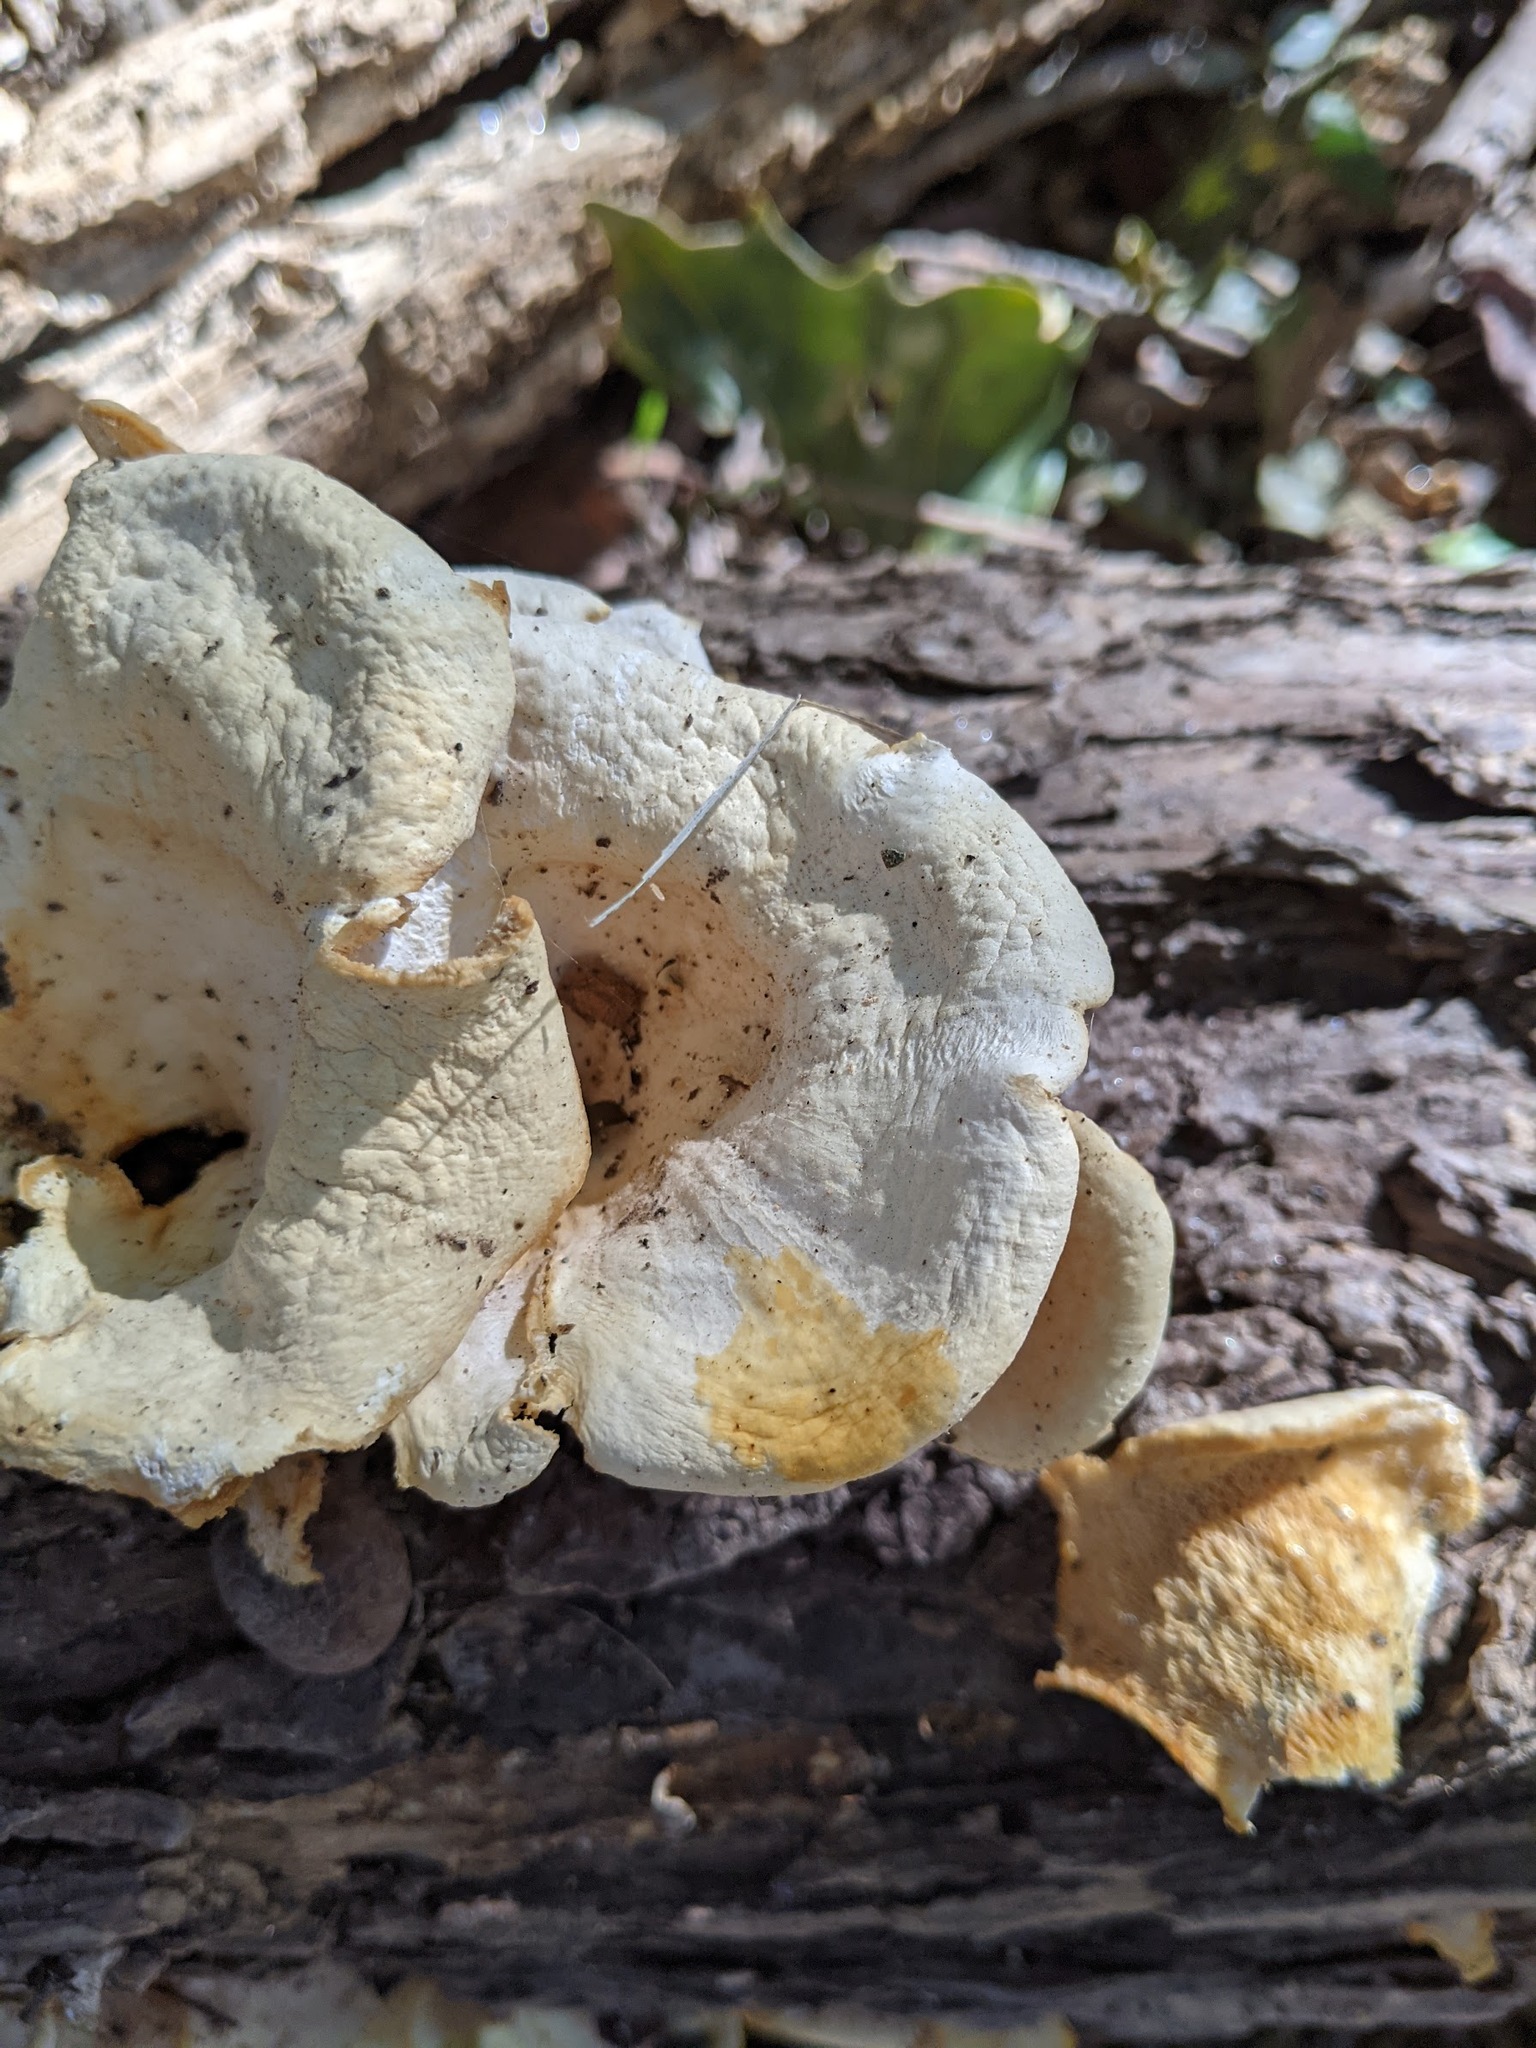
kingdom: Fungi
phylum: Basidiomycota
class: Agaricomycetes
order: Polyporales
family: Polyporaceae
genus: Favolus
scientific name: Favolus tenuiculus
